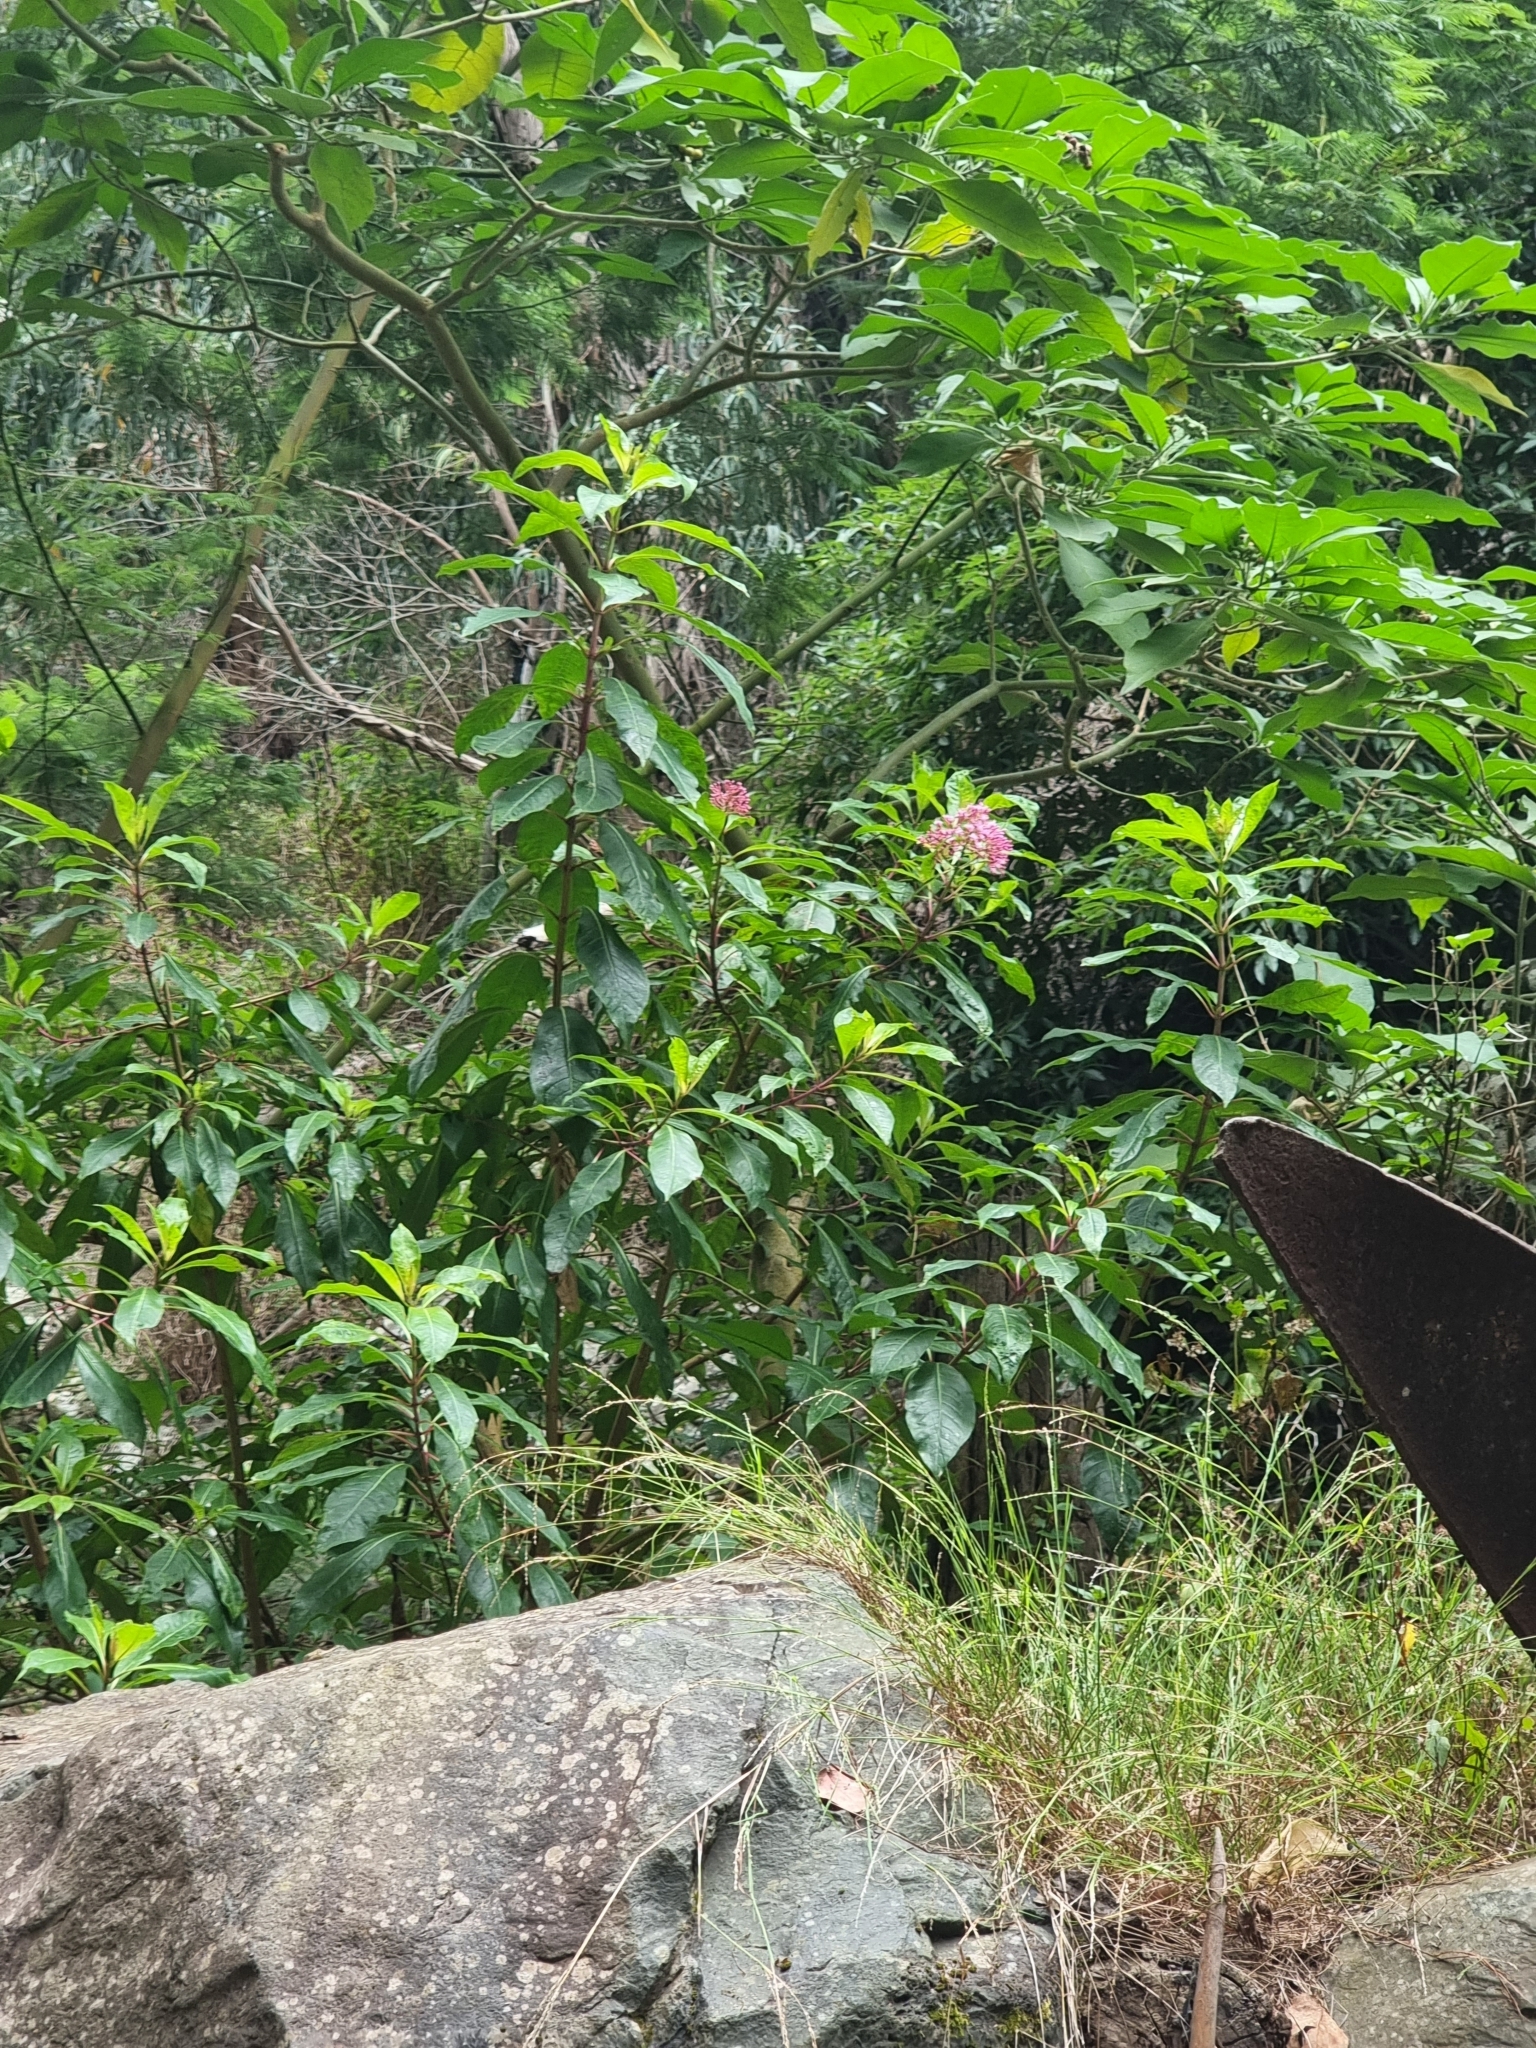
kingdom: Plantae
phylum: Tracheophyta
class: Magnoliopsida
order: Myrtales
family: Onagraceae
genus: Fuchsia
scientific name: Fuchsia arborescens
